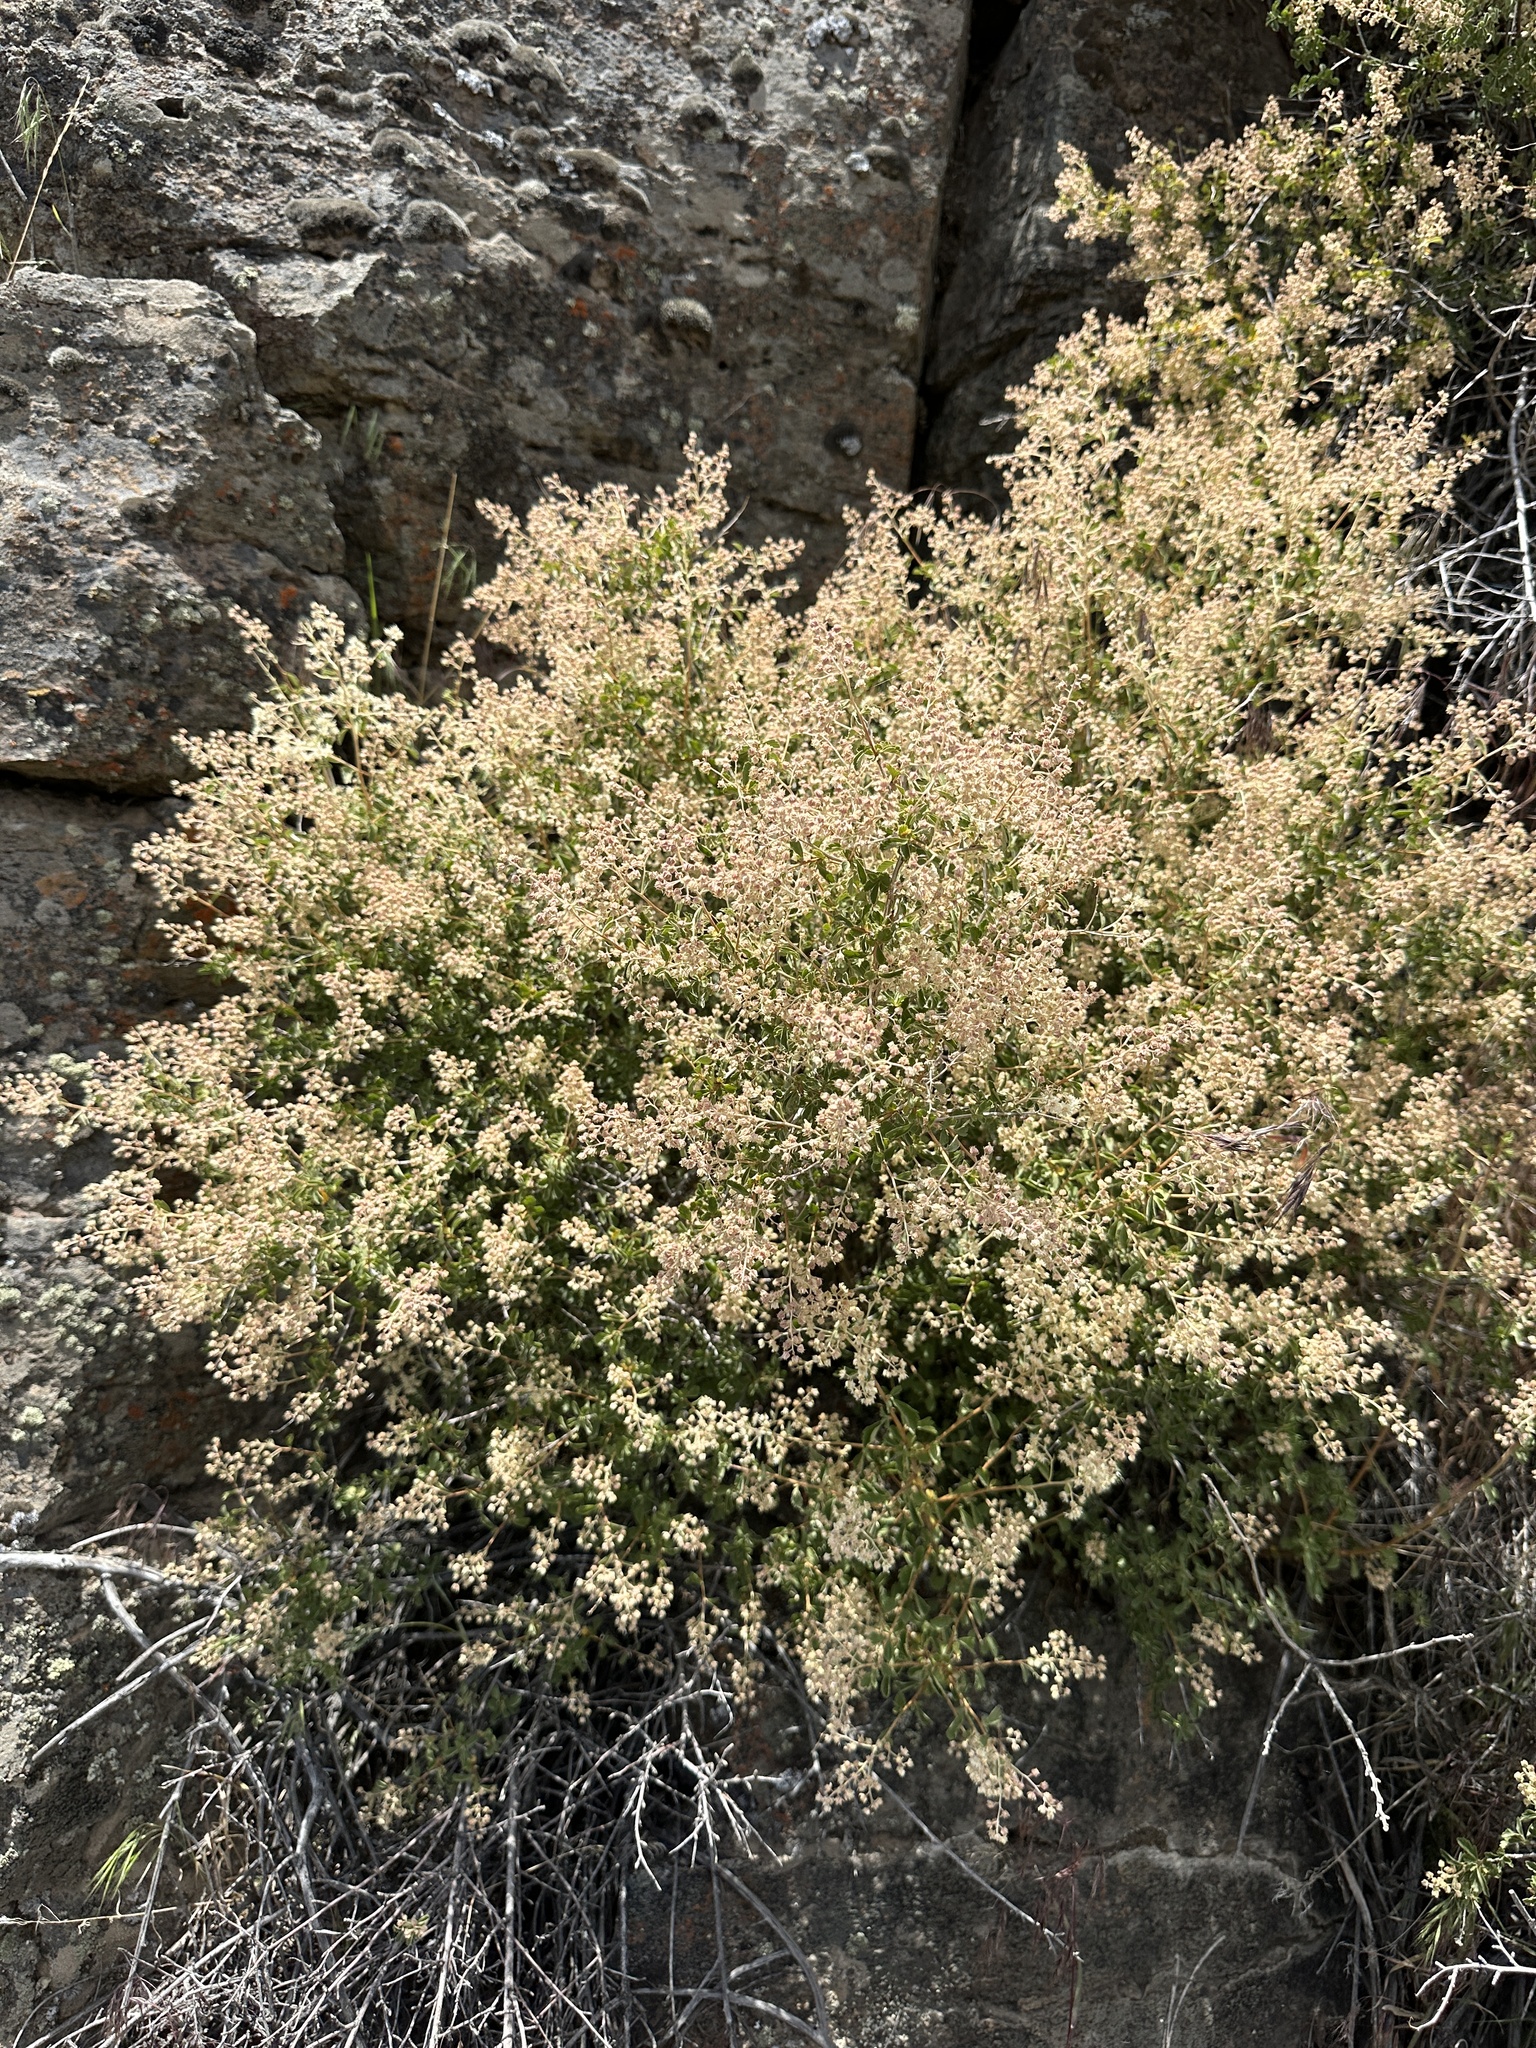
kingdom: Plantae
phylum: Tracheophyta
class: Magnoliopsida
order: Rosales
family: Rosaceae
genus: Holodiscus
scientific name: Holodiscus discolor
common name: Oceanspray
